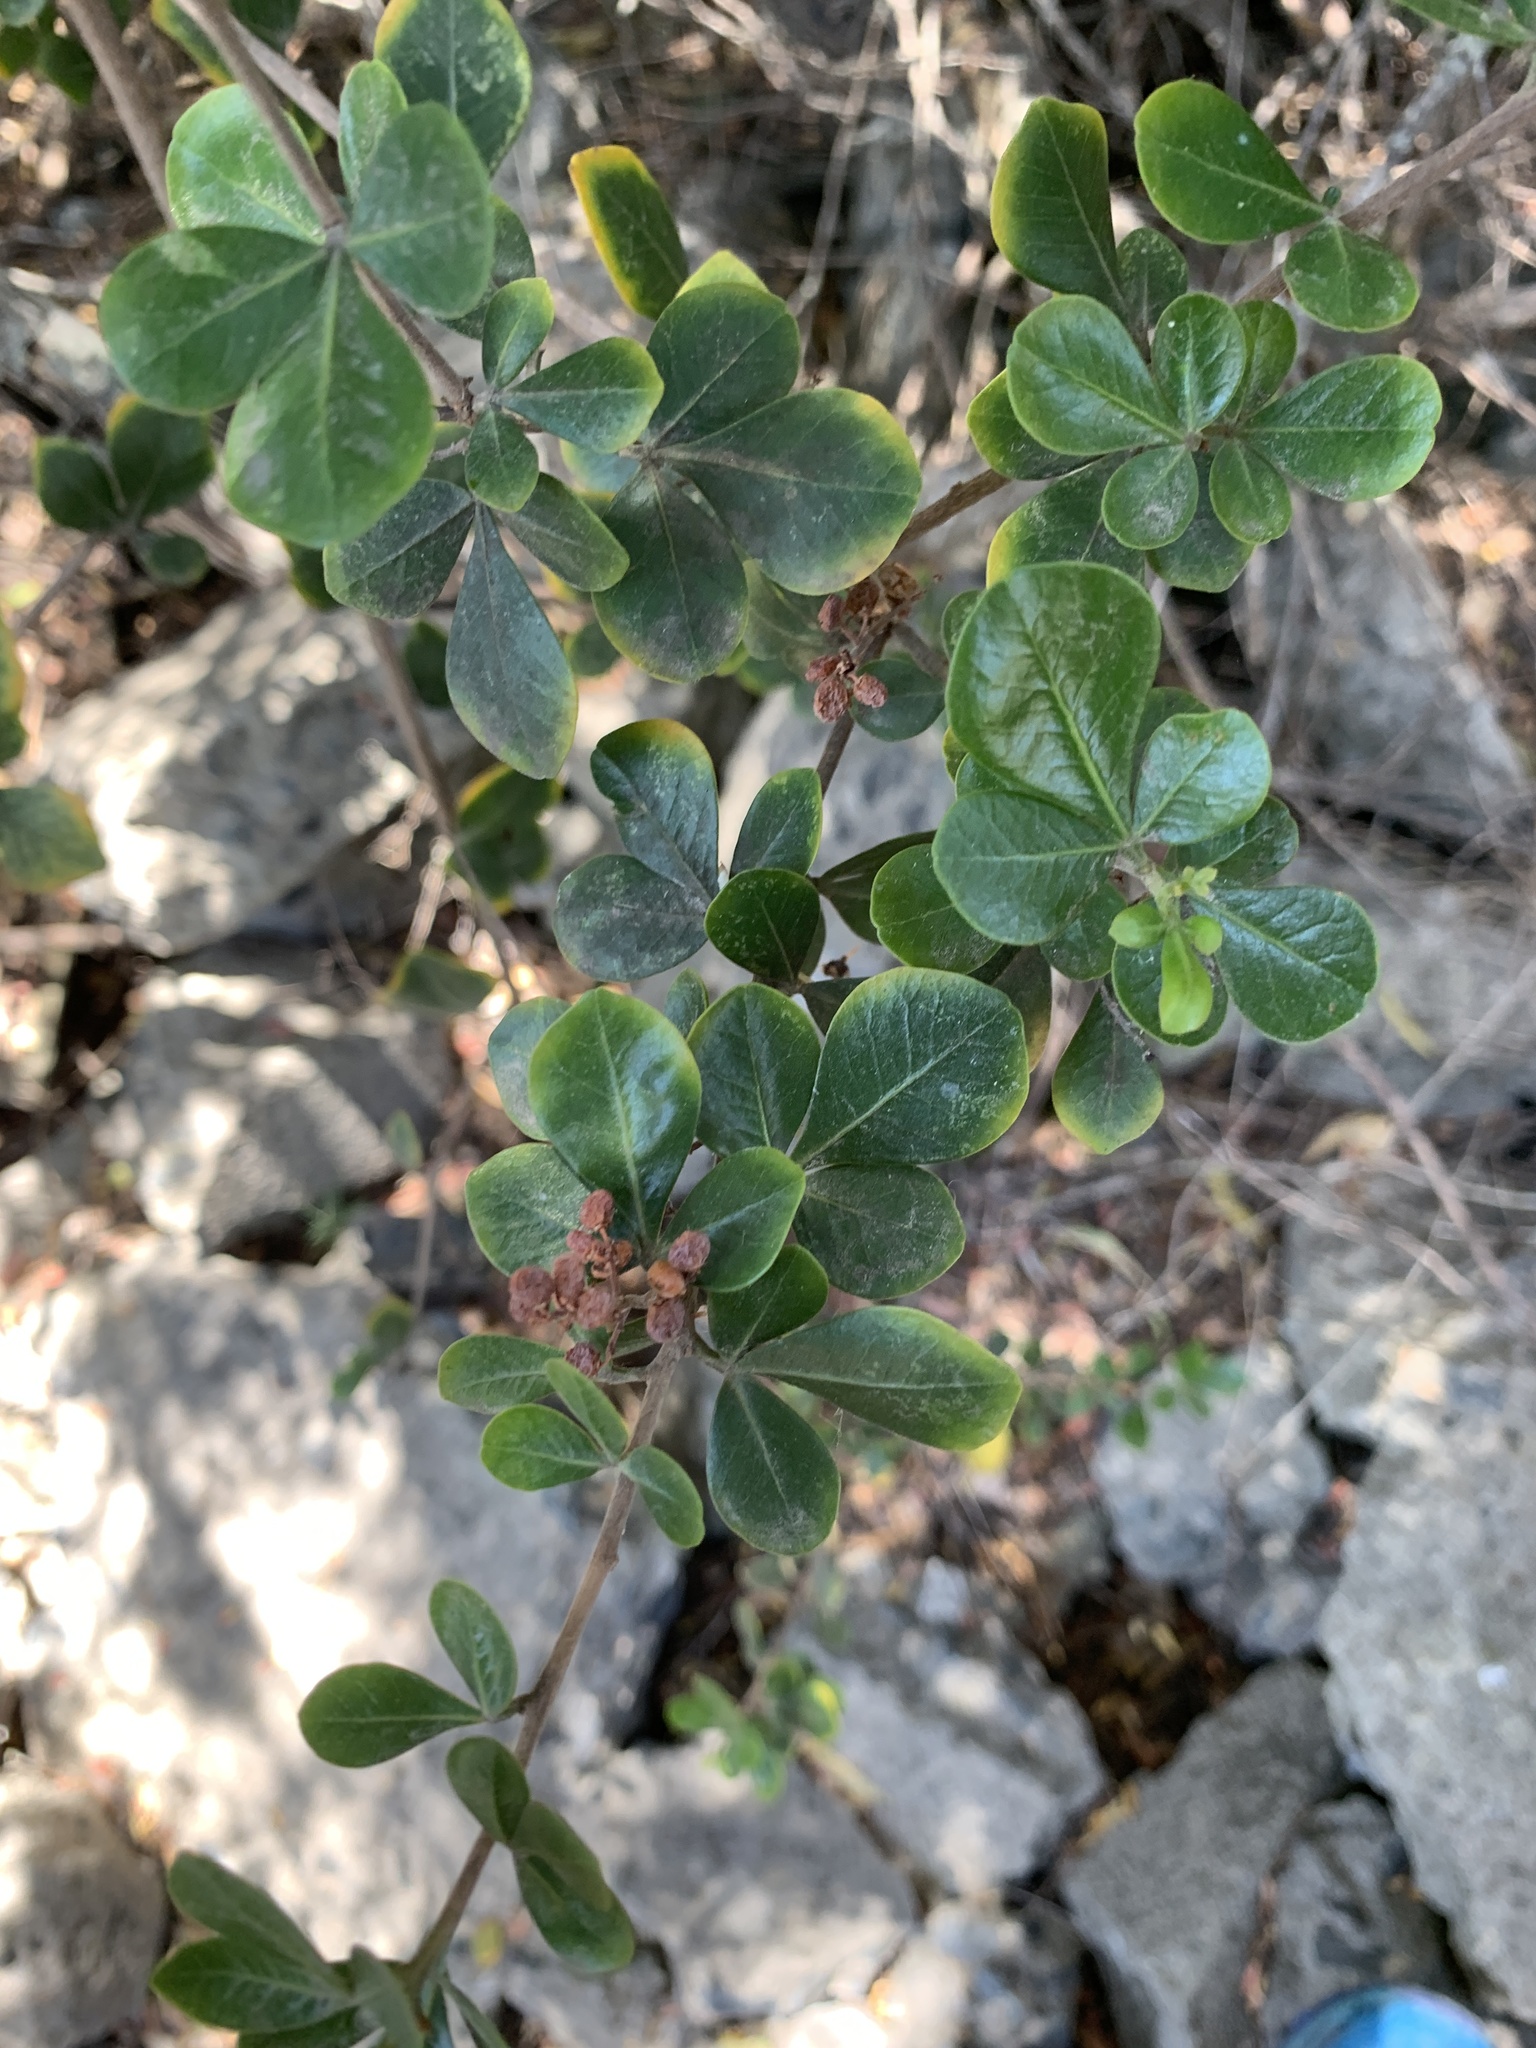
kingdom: Plantae
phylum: Tracheophyta
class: Magnoliopsida
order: Sapindales
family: Anacardiaceae
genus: Searsia
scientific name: Searsia lucida
